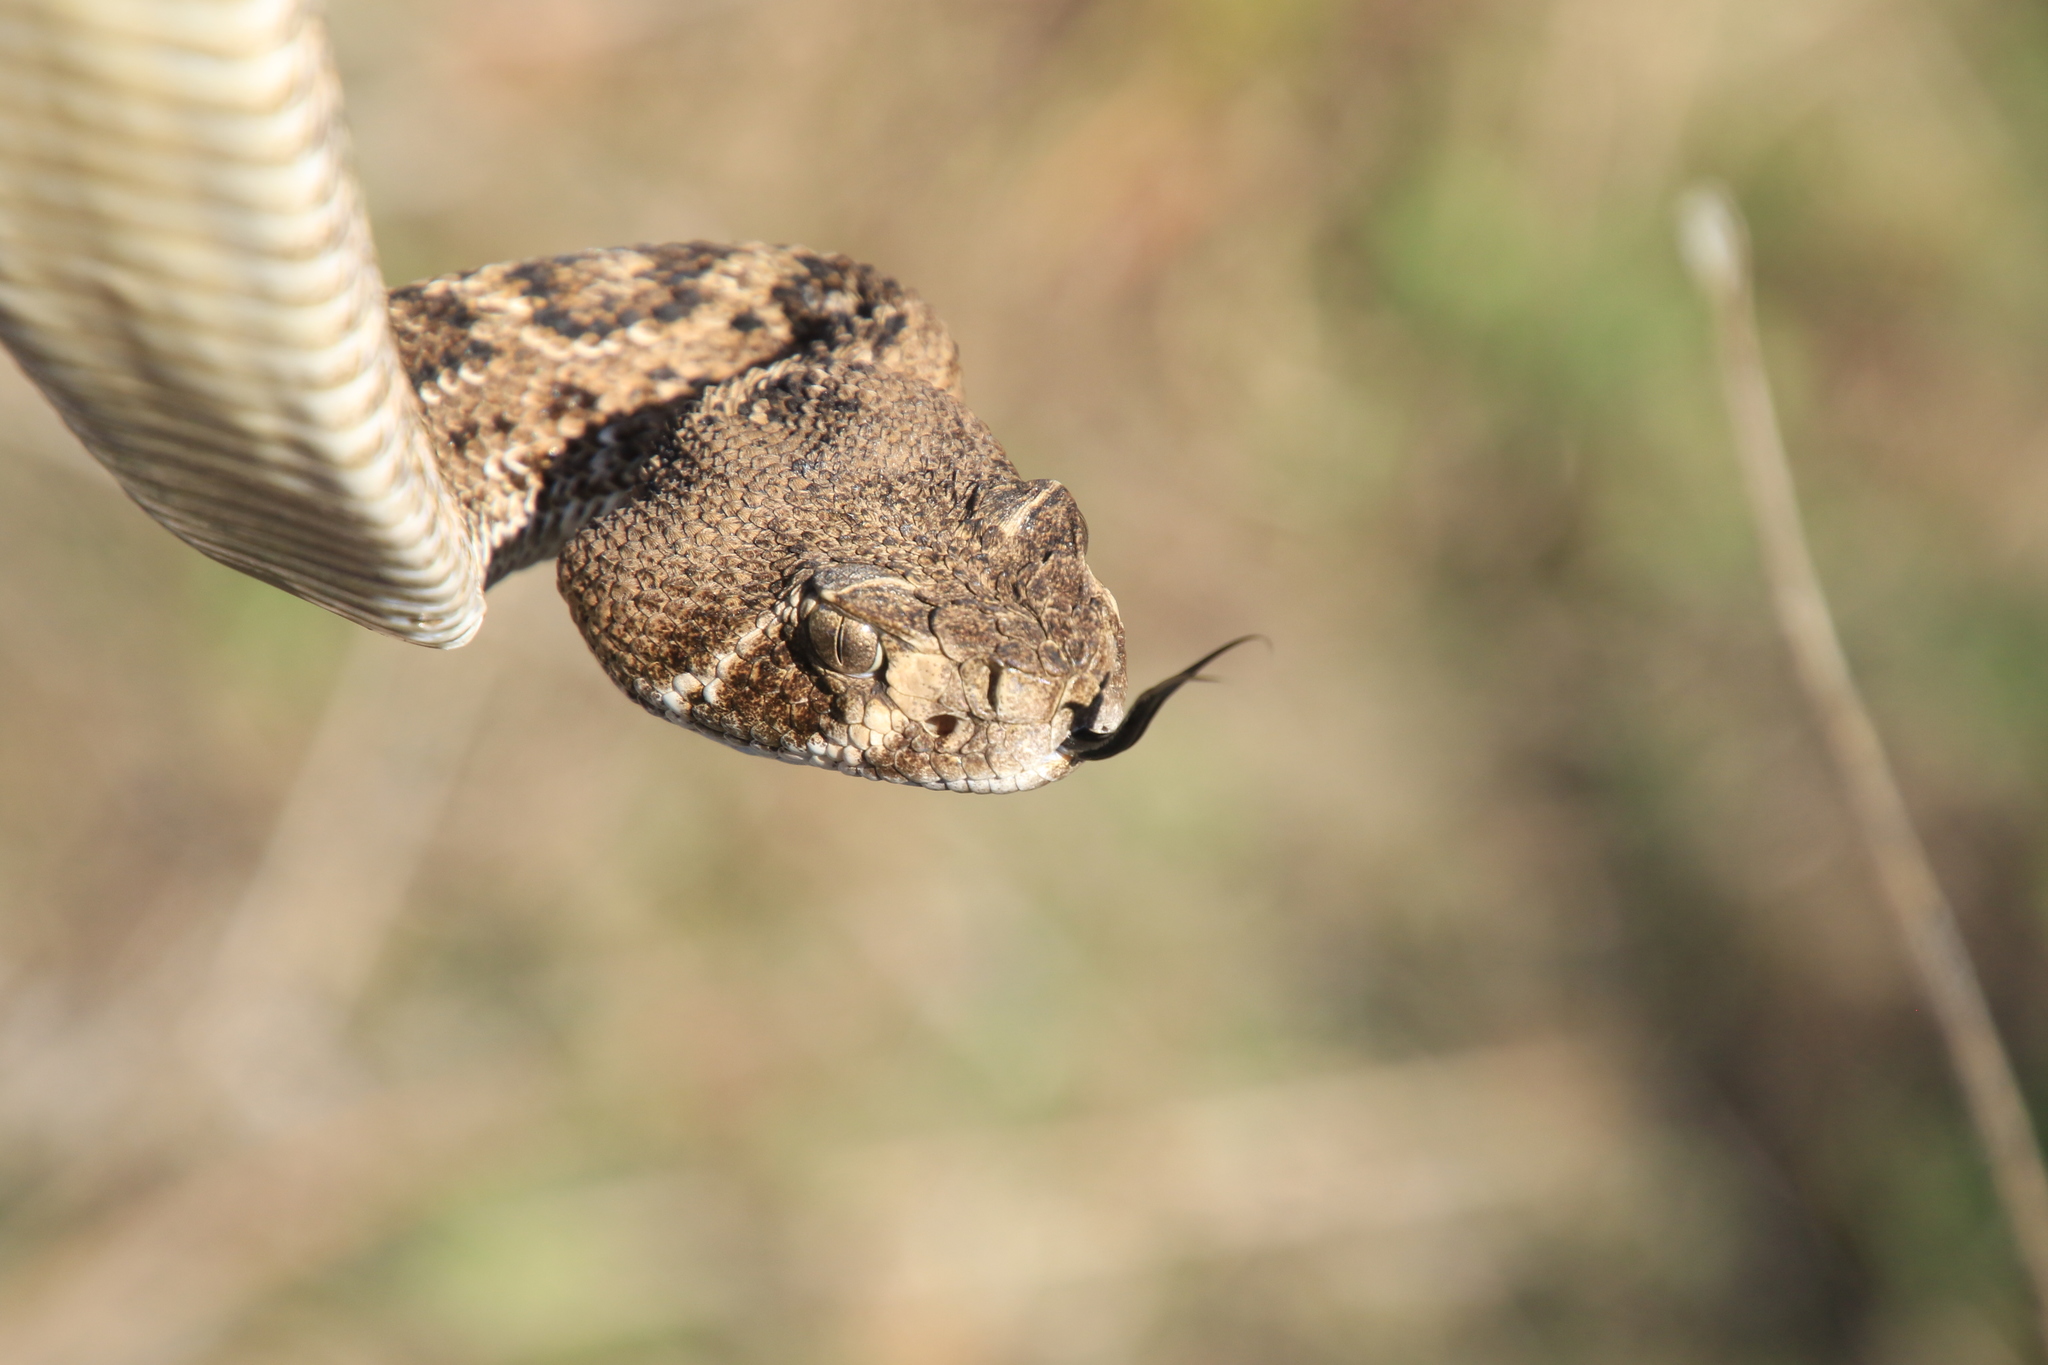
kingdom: Animalia
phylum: Chordata
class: Squamata
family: Viperidae
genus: Crotalus
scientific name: Crotalus atrox
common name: Western diamond-backed rattlesnake
